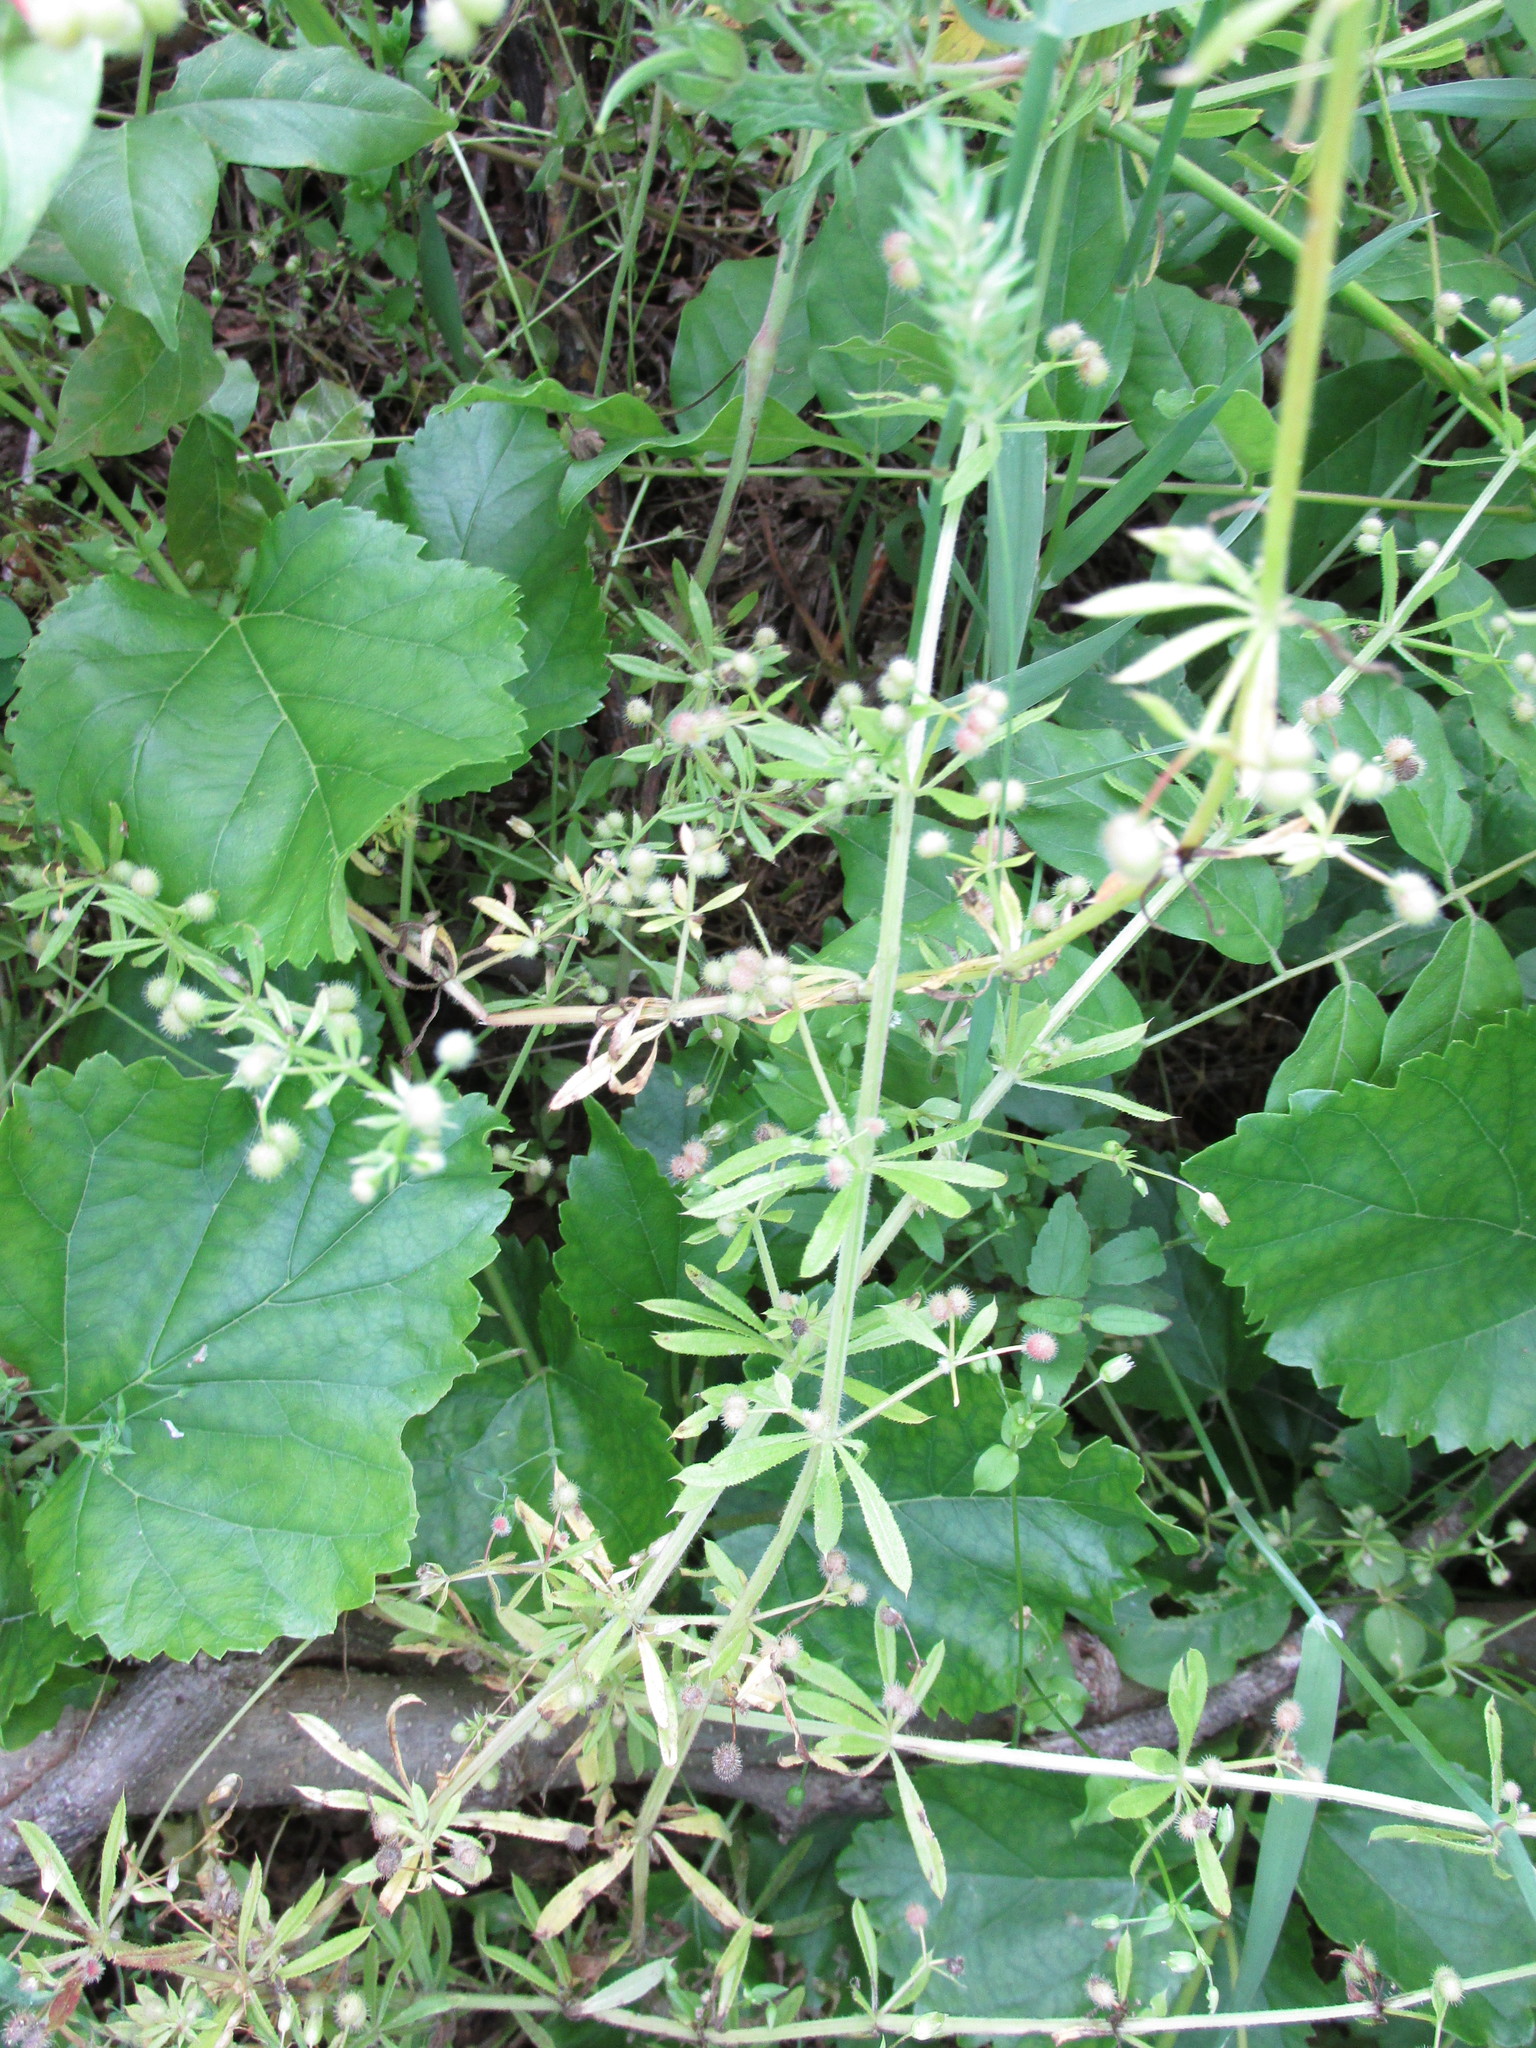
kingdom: Plantae
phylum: Tracheophyta
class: Magnoliopsida
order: Gentianales
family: Rubiaceae
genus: Galium
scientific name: Galium aparine
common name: Cleavers
